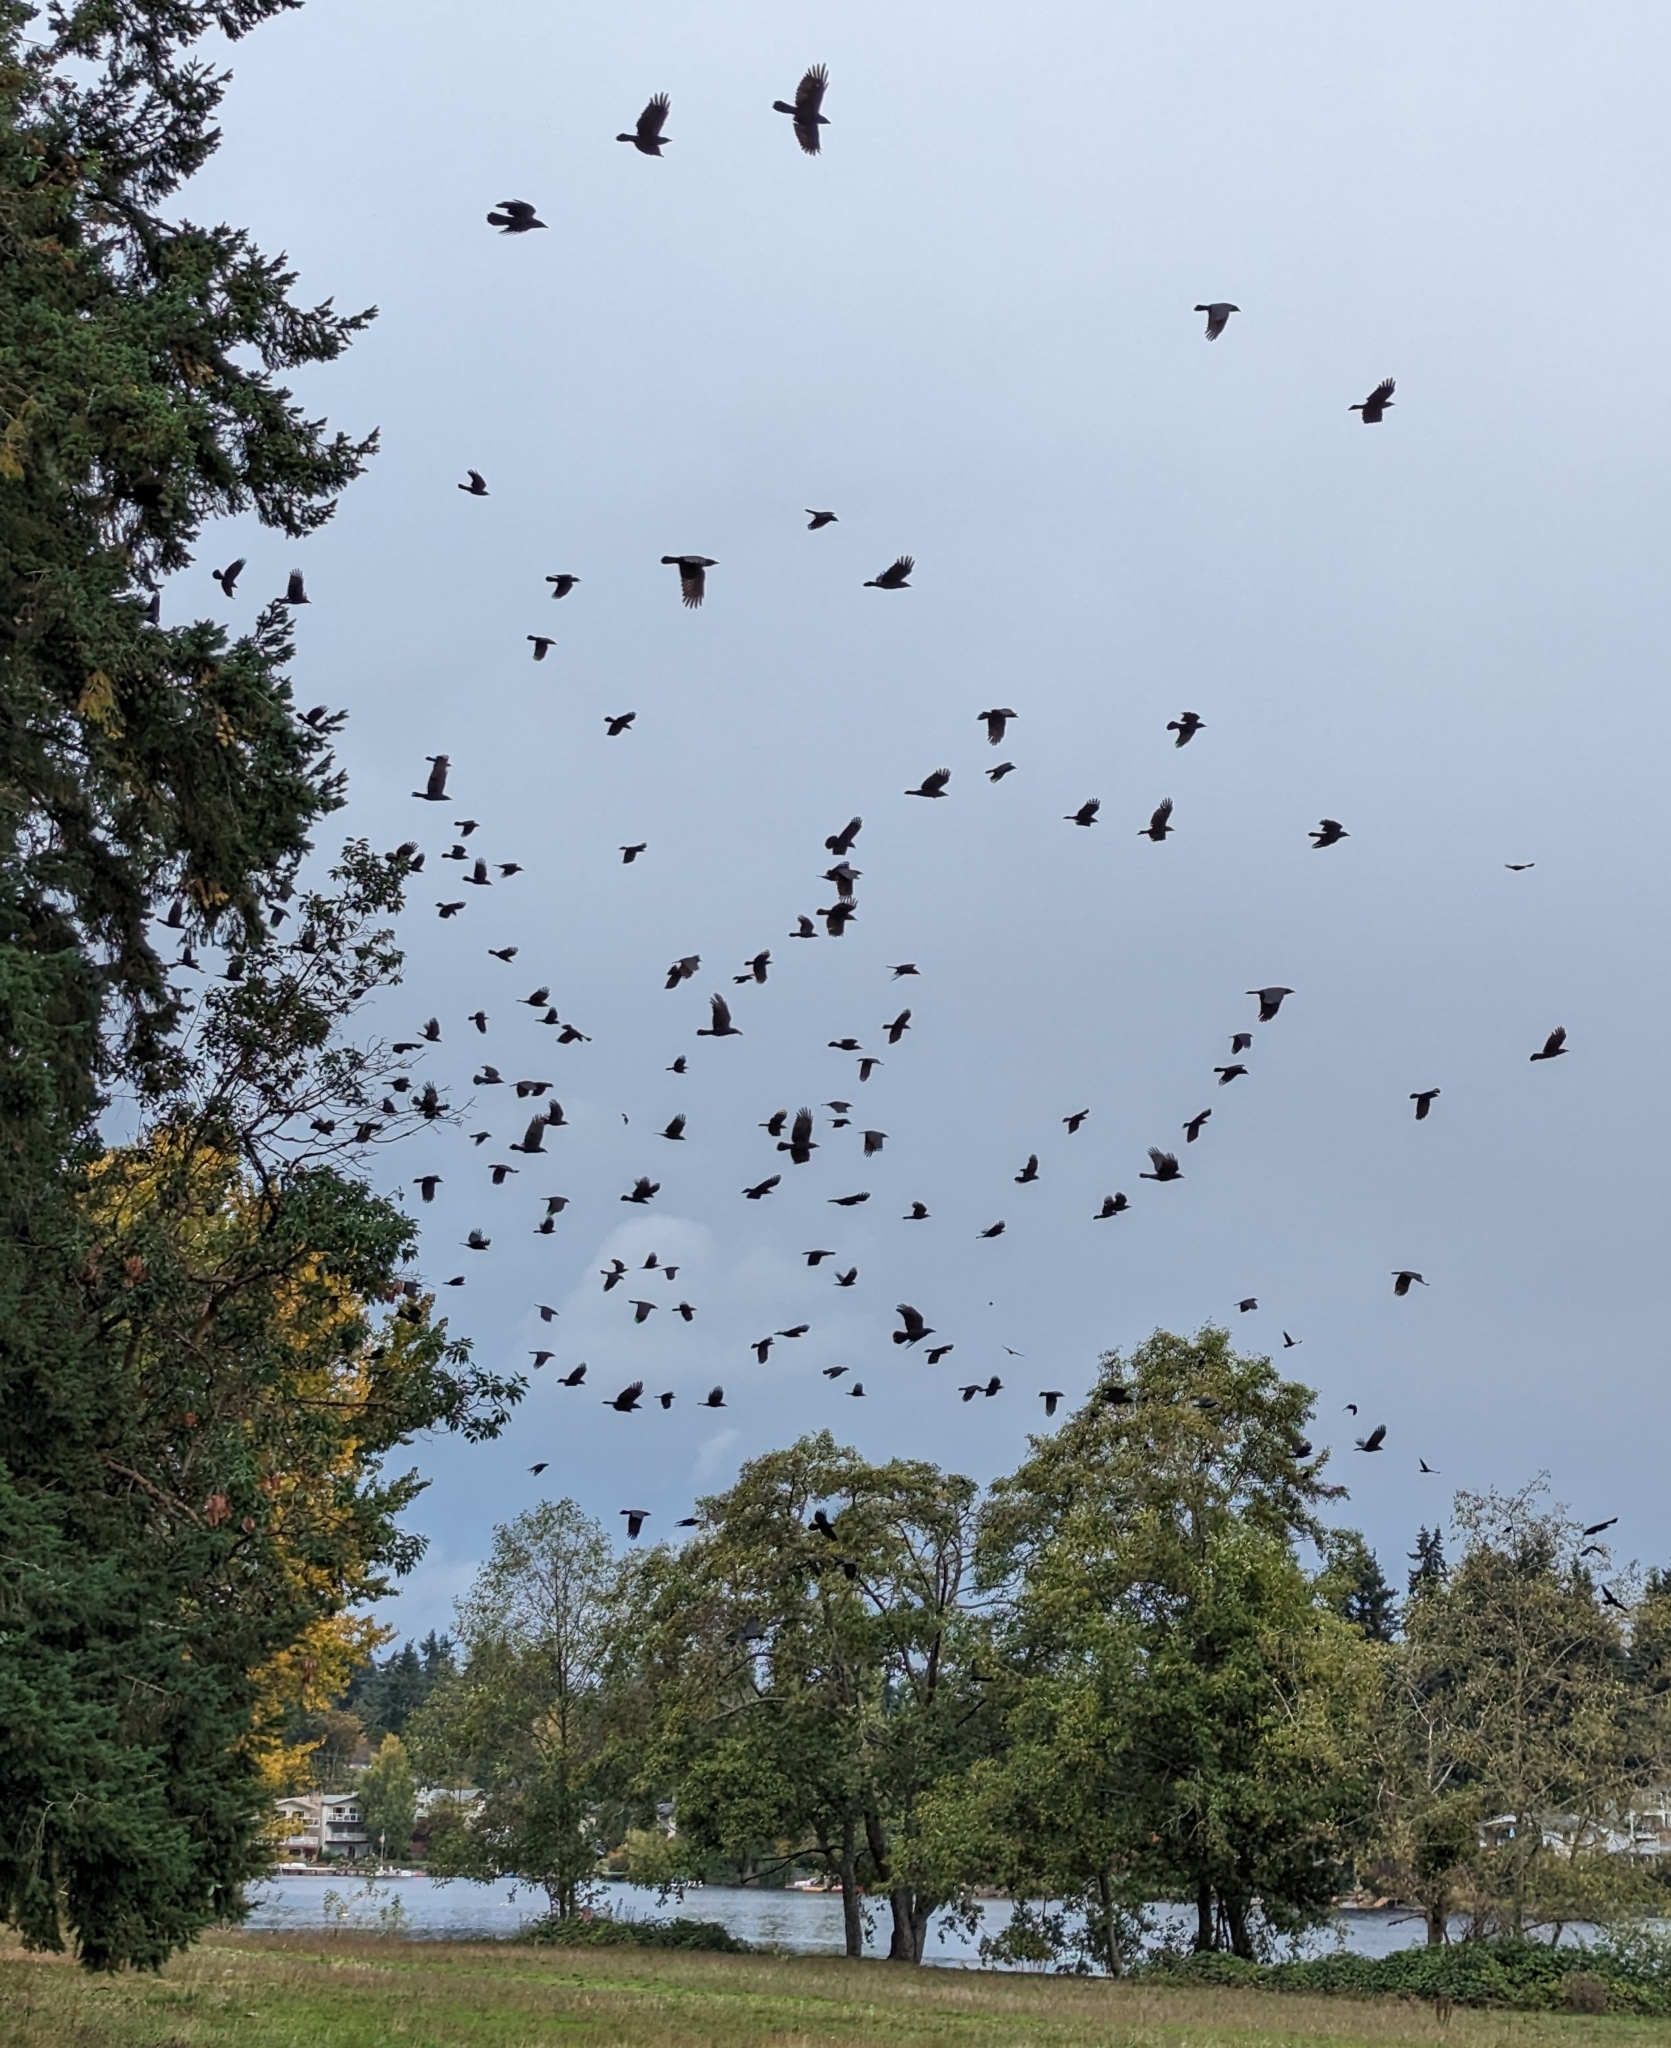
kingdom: Animalia
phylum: Chordata
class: Aves
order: Passeriformes
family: Corvidae
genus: Corvus
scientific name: Corvus brachyrhynchos
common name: American crow
